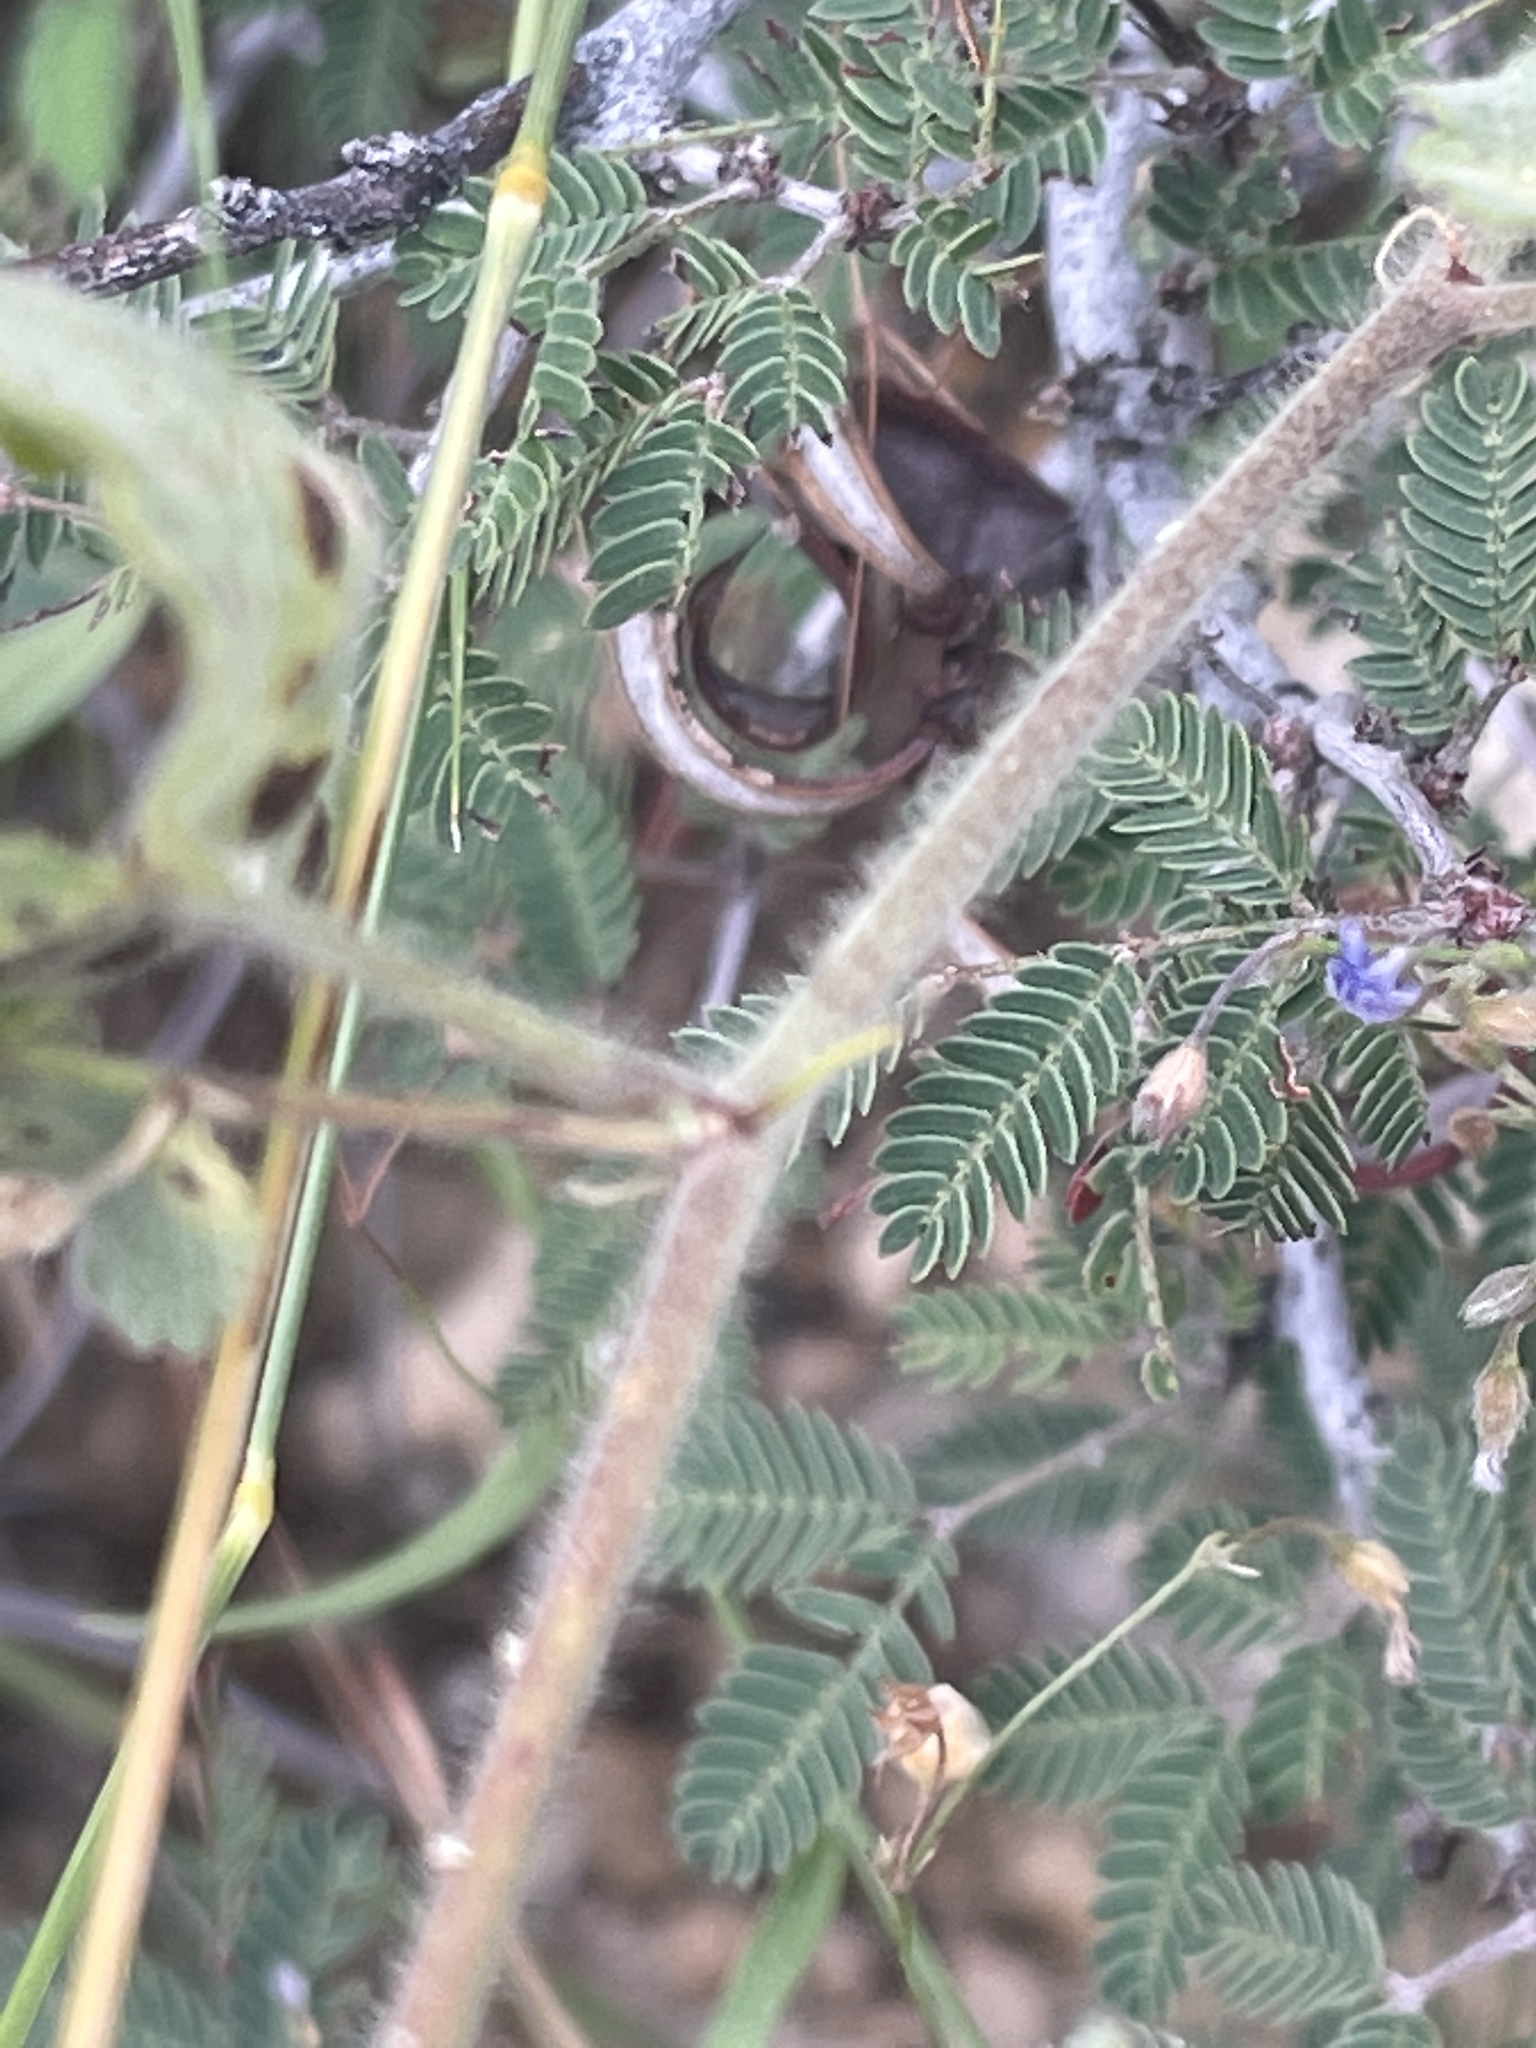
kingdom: Plantae
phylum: Tracheophyta
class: Magnoliopsida
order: Malvales
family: Malvaceae
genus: Herissantia
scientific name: Herissantia crispa
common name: Bladdermallow
